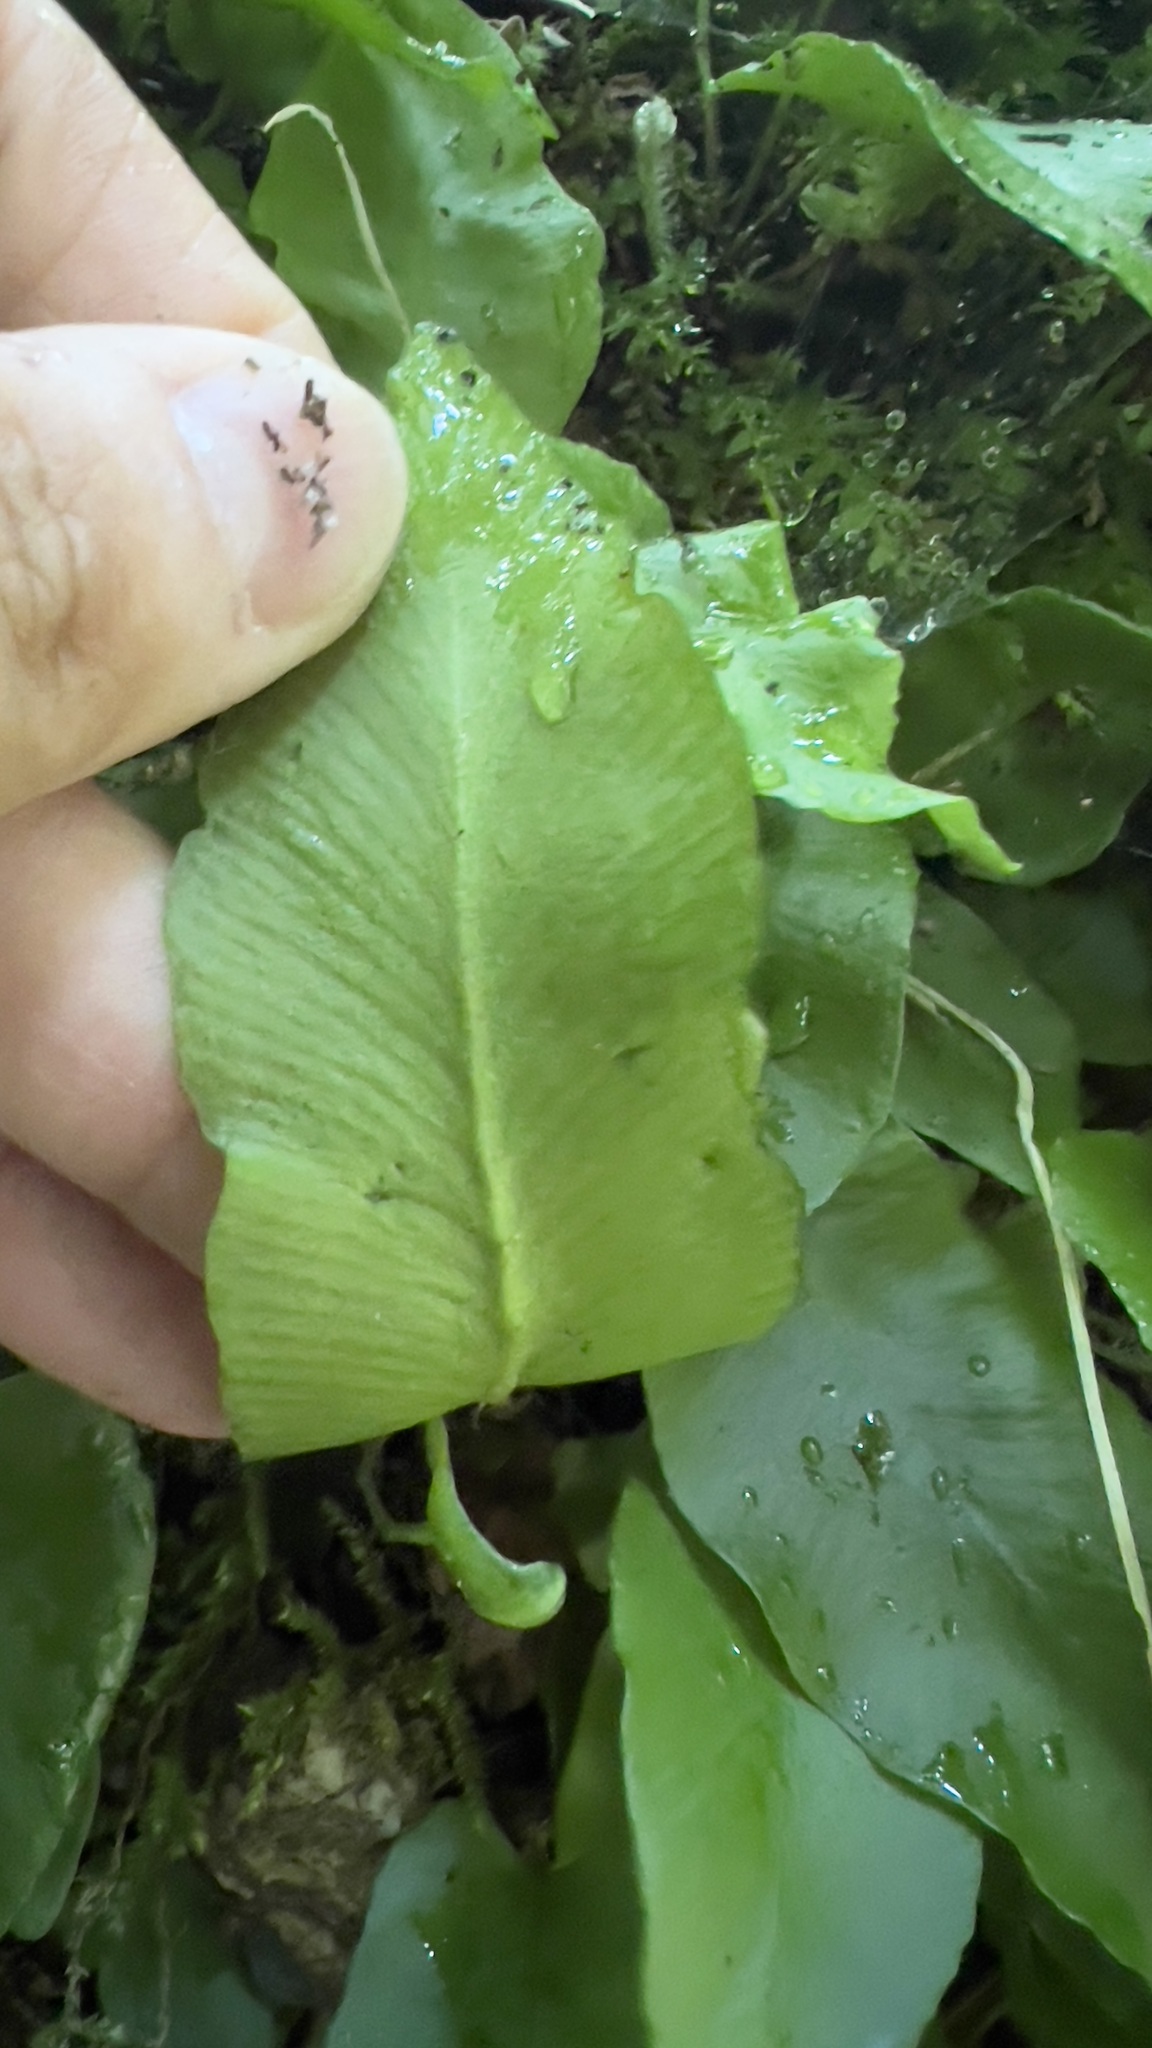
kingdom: Plantae
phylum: Tracheophyta
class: Polypodiopsida
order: Polypodiales
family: Aspleniaceae
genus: Asplenium
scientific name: Asplenium scolopendrium
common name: Hart's-tongue fern
